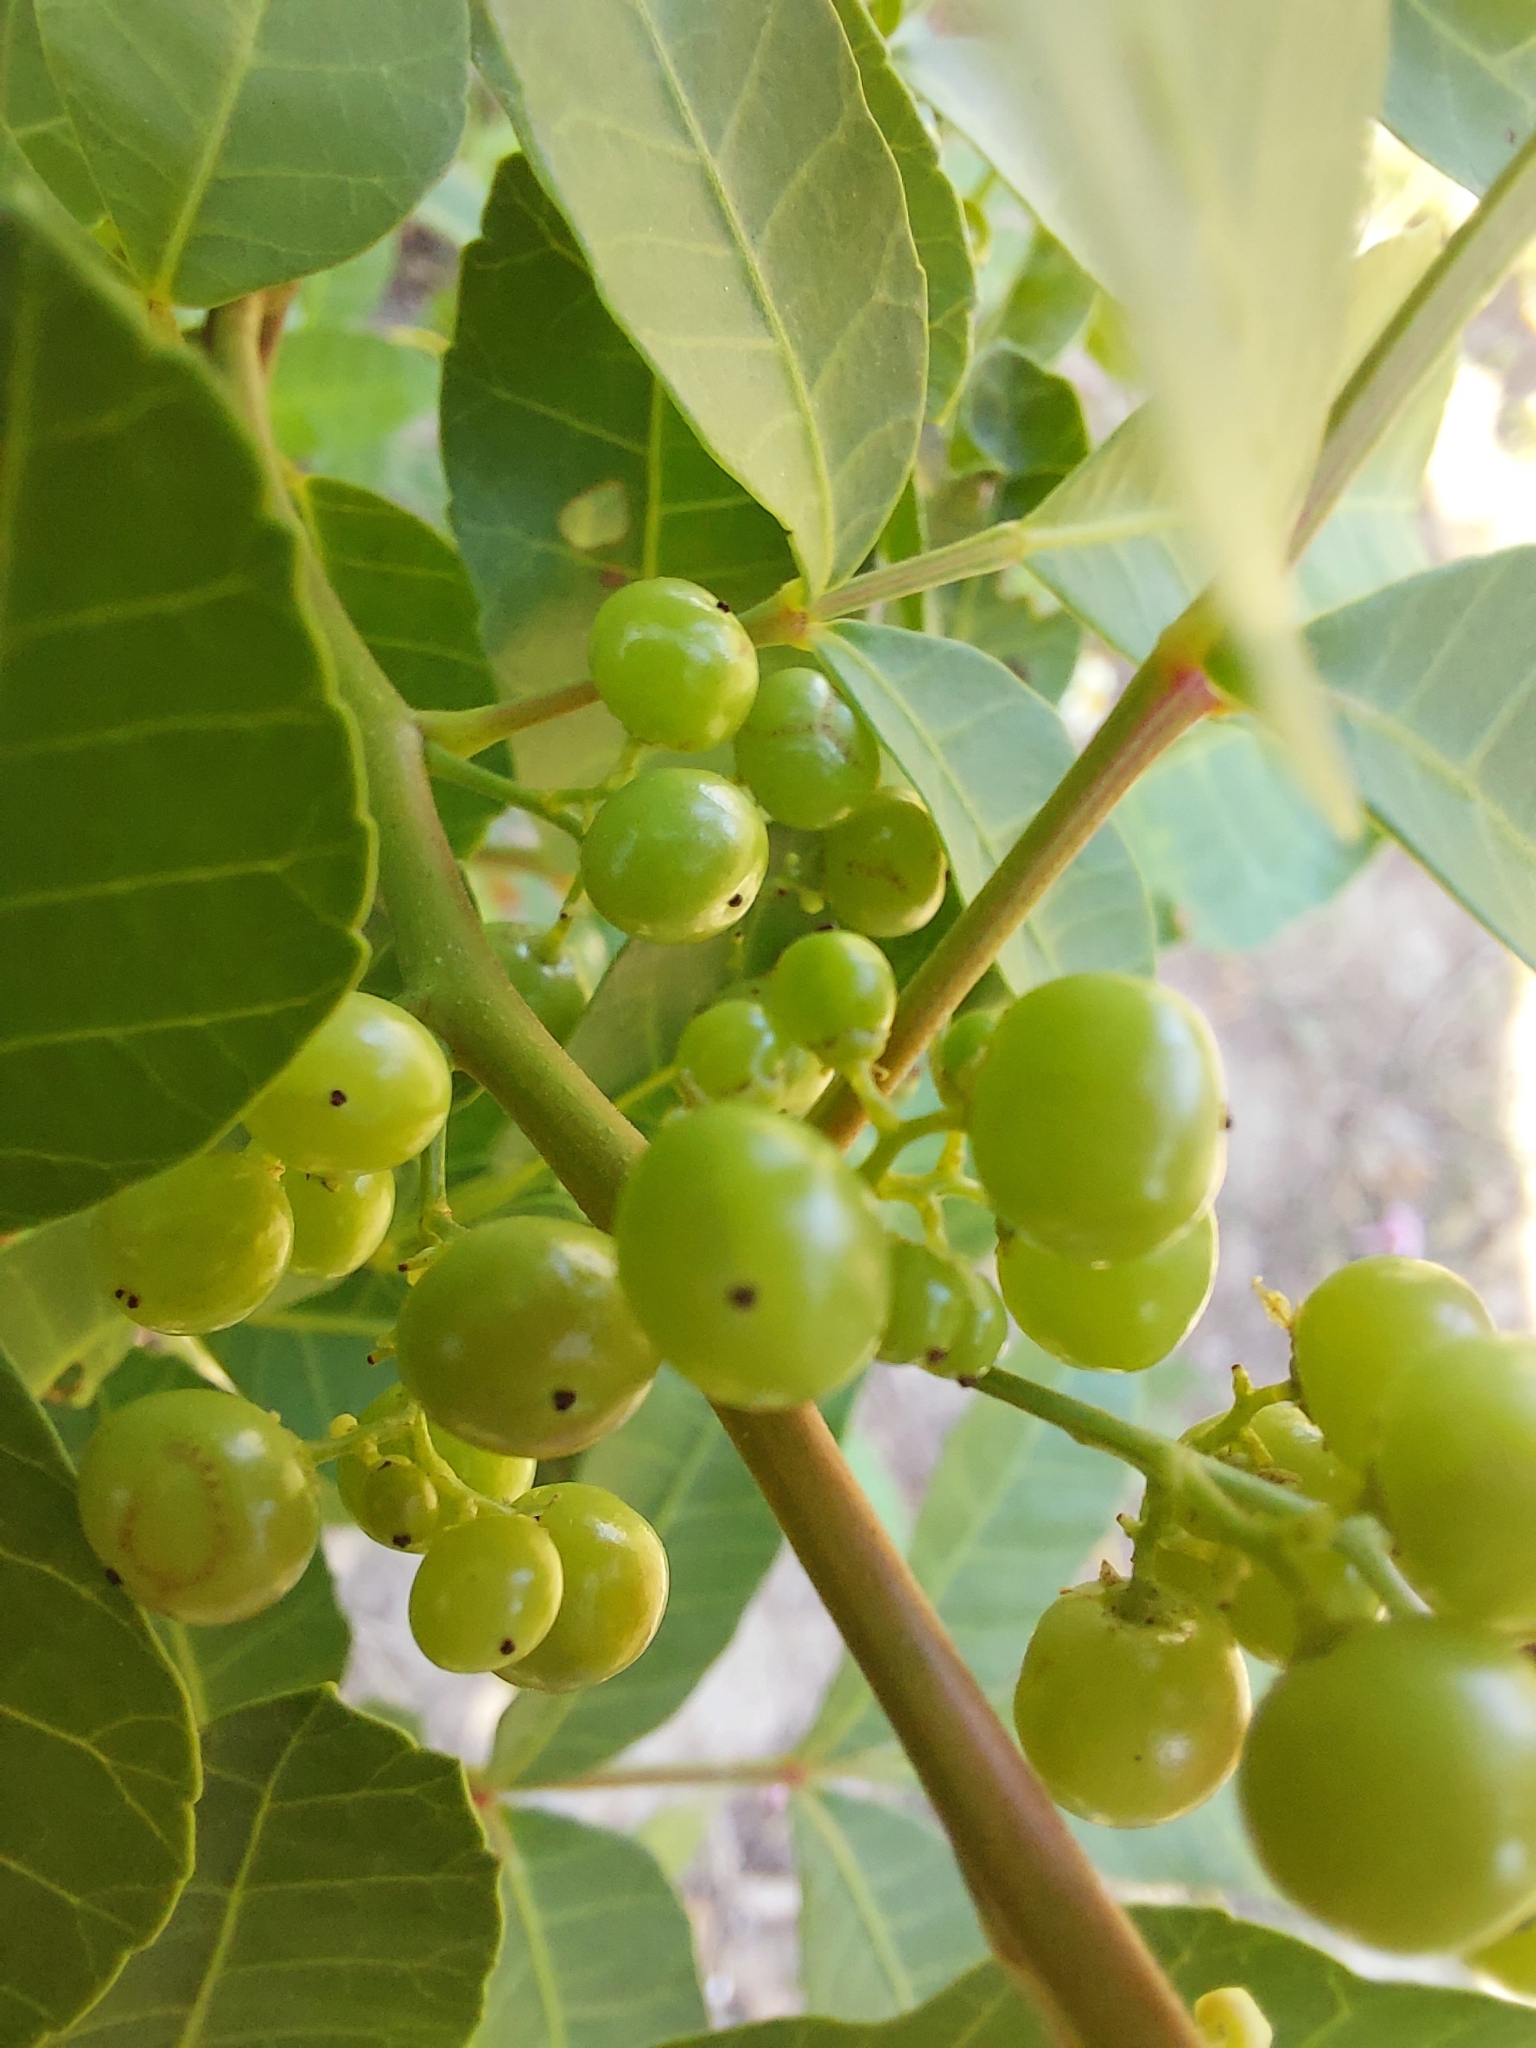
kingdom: Plantae
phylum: Tracheophyta
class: Magnoliopsida
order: Sapindales
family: Anacardiaceae
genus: Schinus
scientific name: Schinus terebinthifolia
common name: Brazilian peppertree
